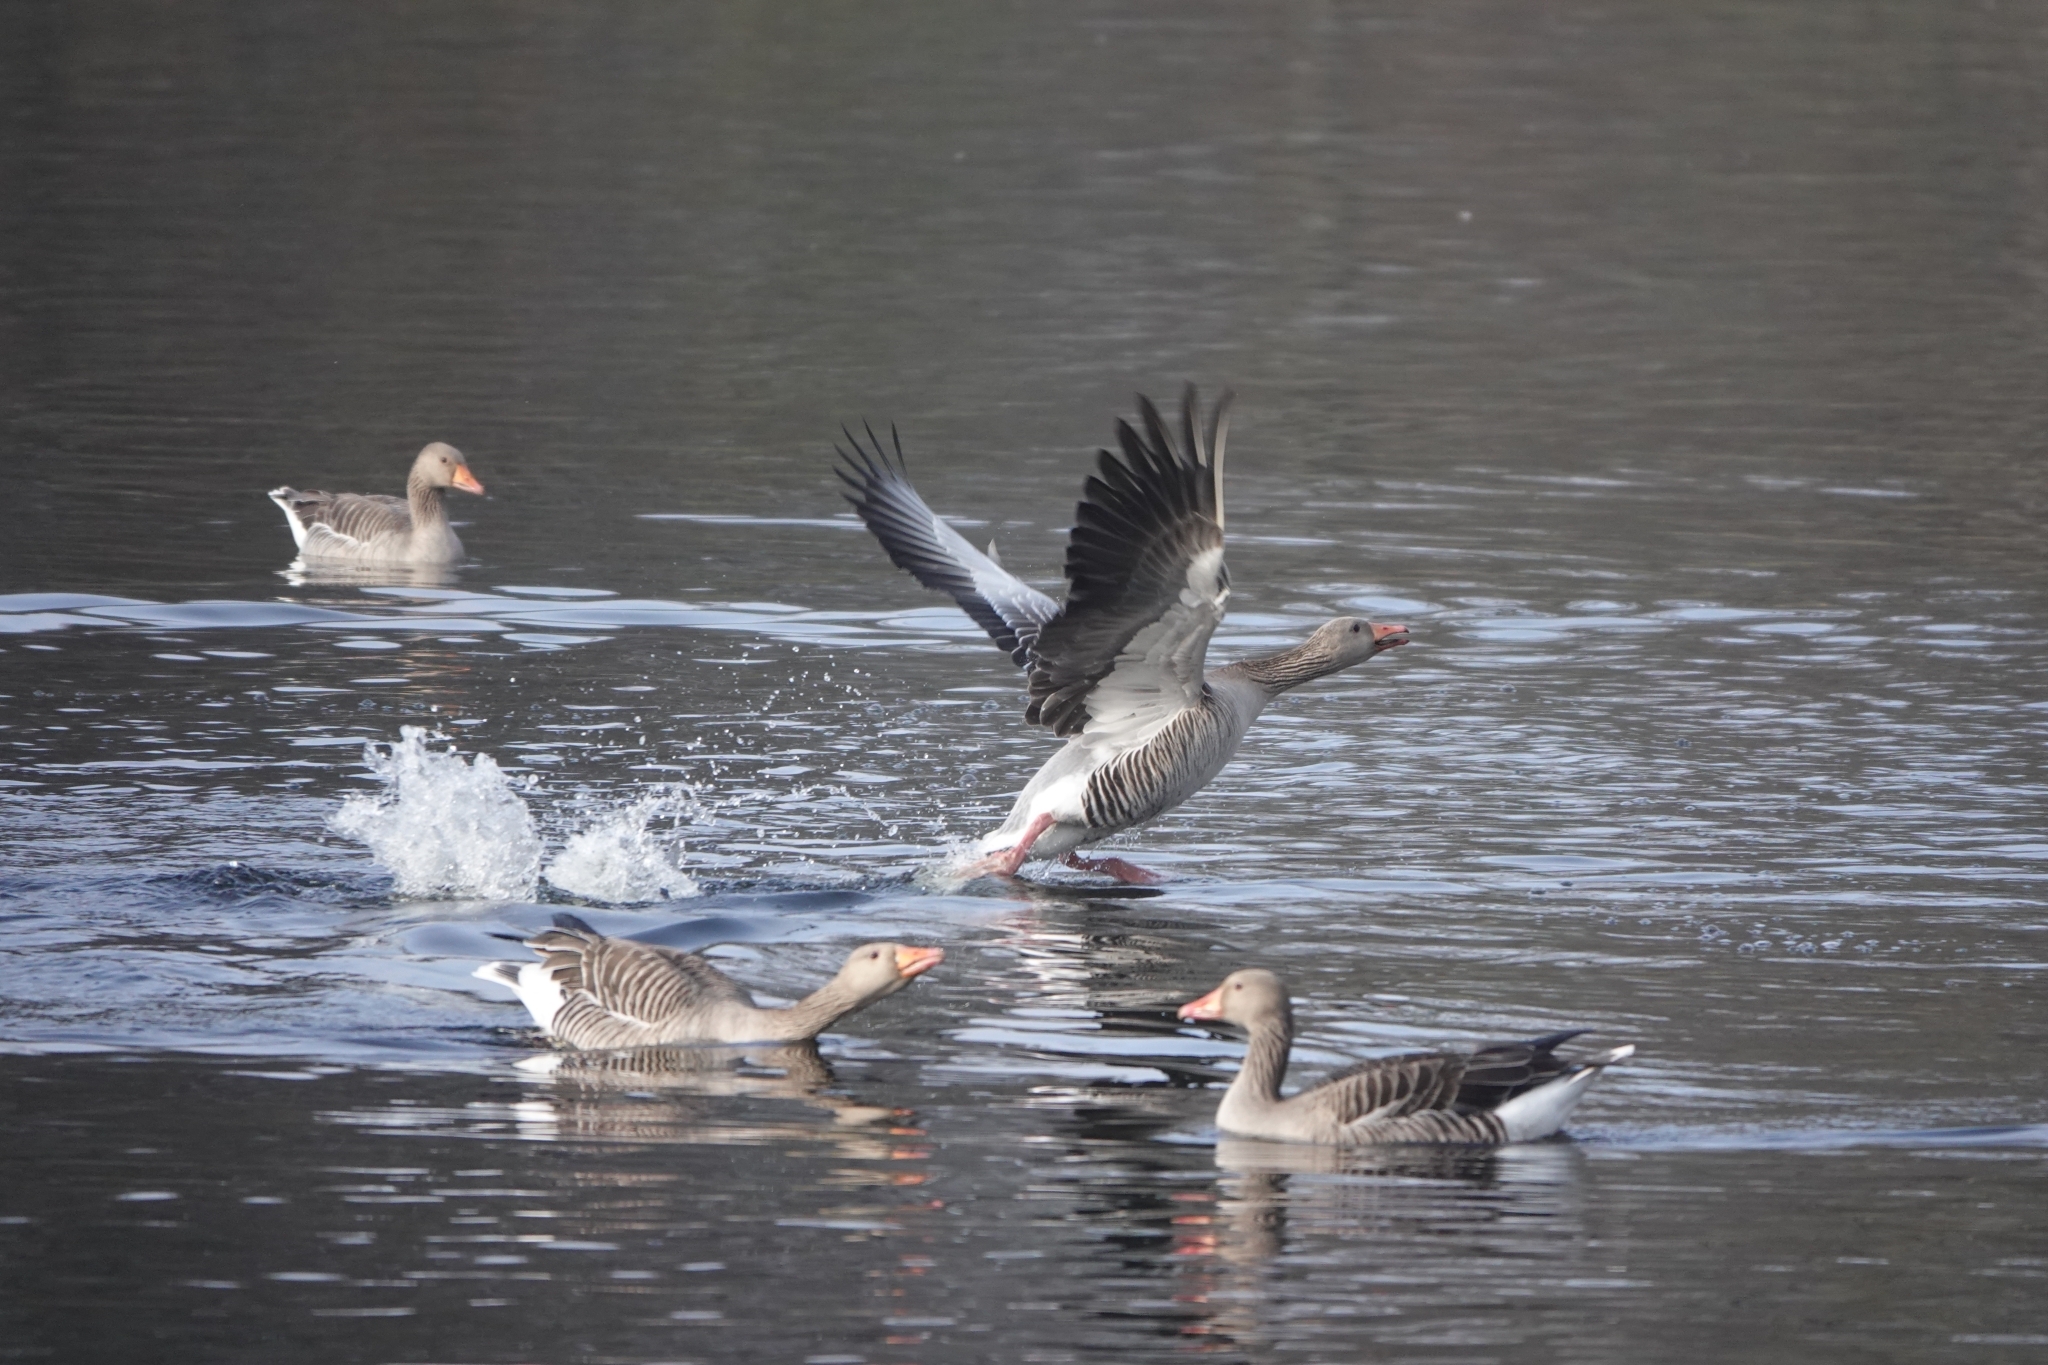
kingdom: Animalia
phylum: Chordata
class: Aves
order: Anseriformes
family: Anatidae
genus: Anser
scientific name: Anser anser
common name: Greylag goose
